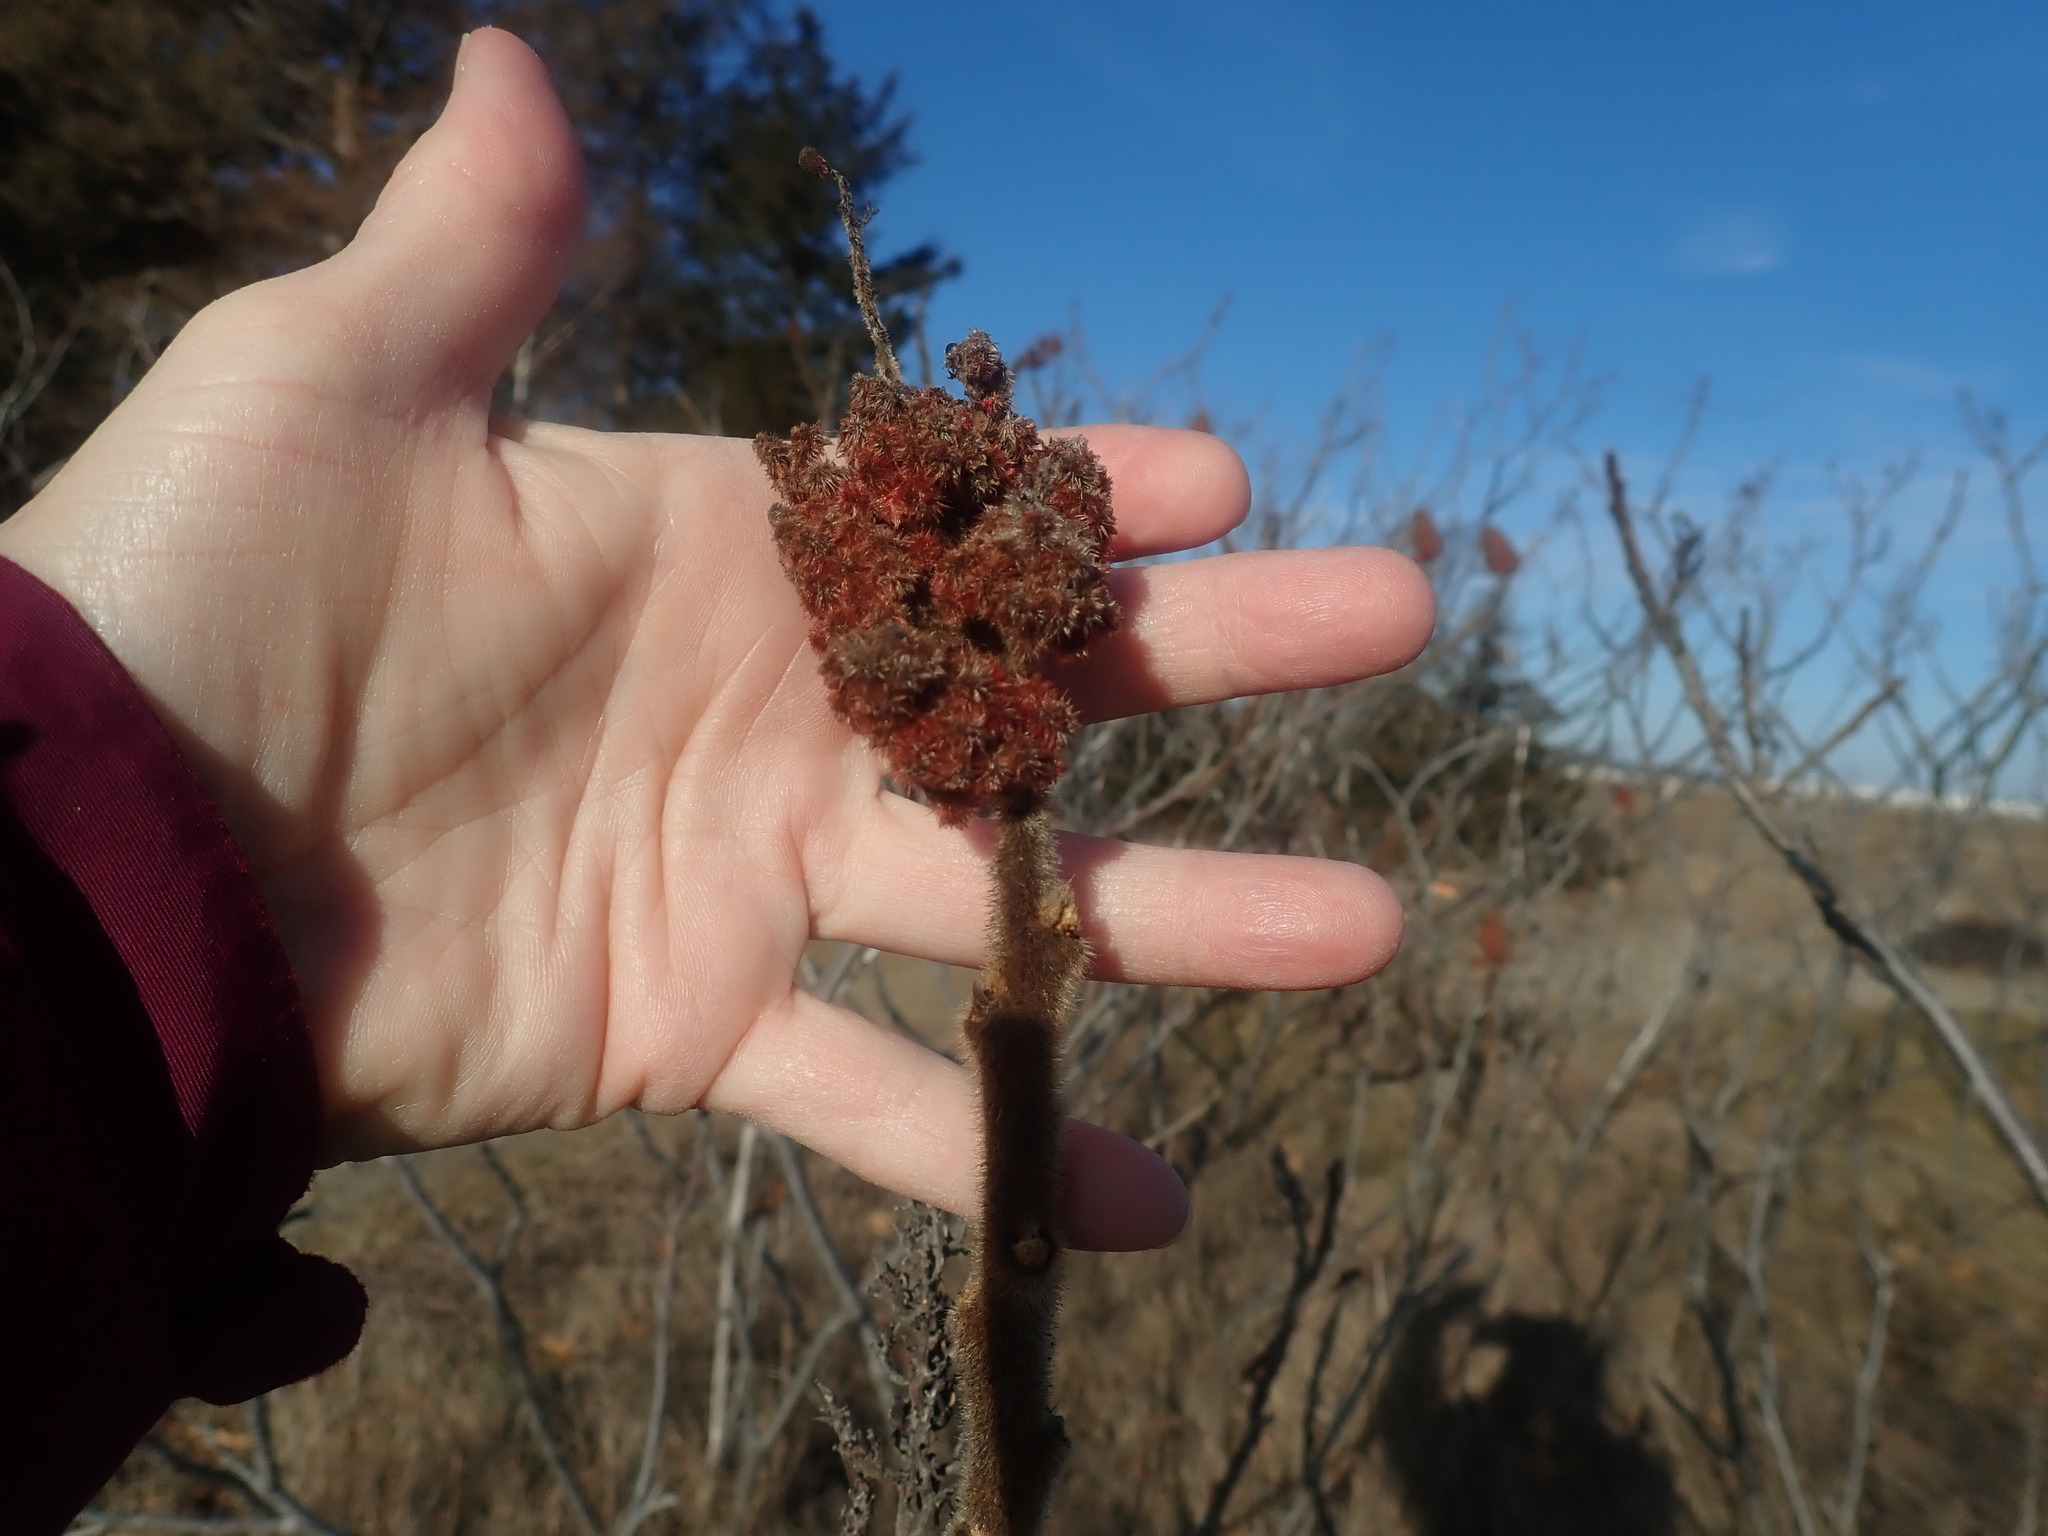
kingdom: Plantae
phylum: Tracheophyta
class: Magnoliopsida
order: Sapindales
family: Anacardiaceae
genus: Rhus
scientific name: Rhus typhina
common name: Staghorn sumac
